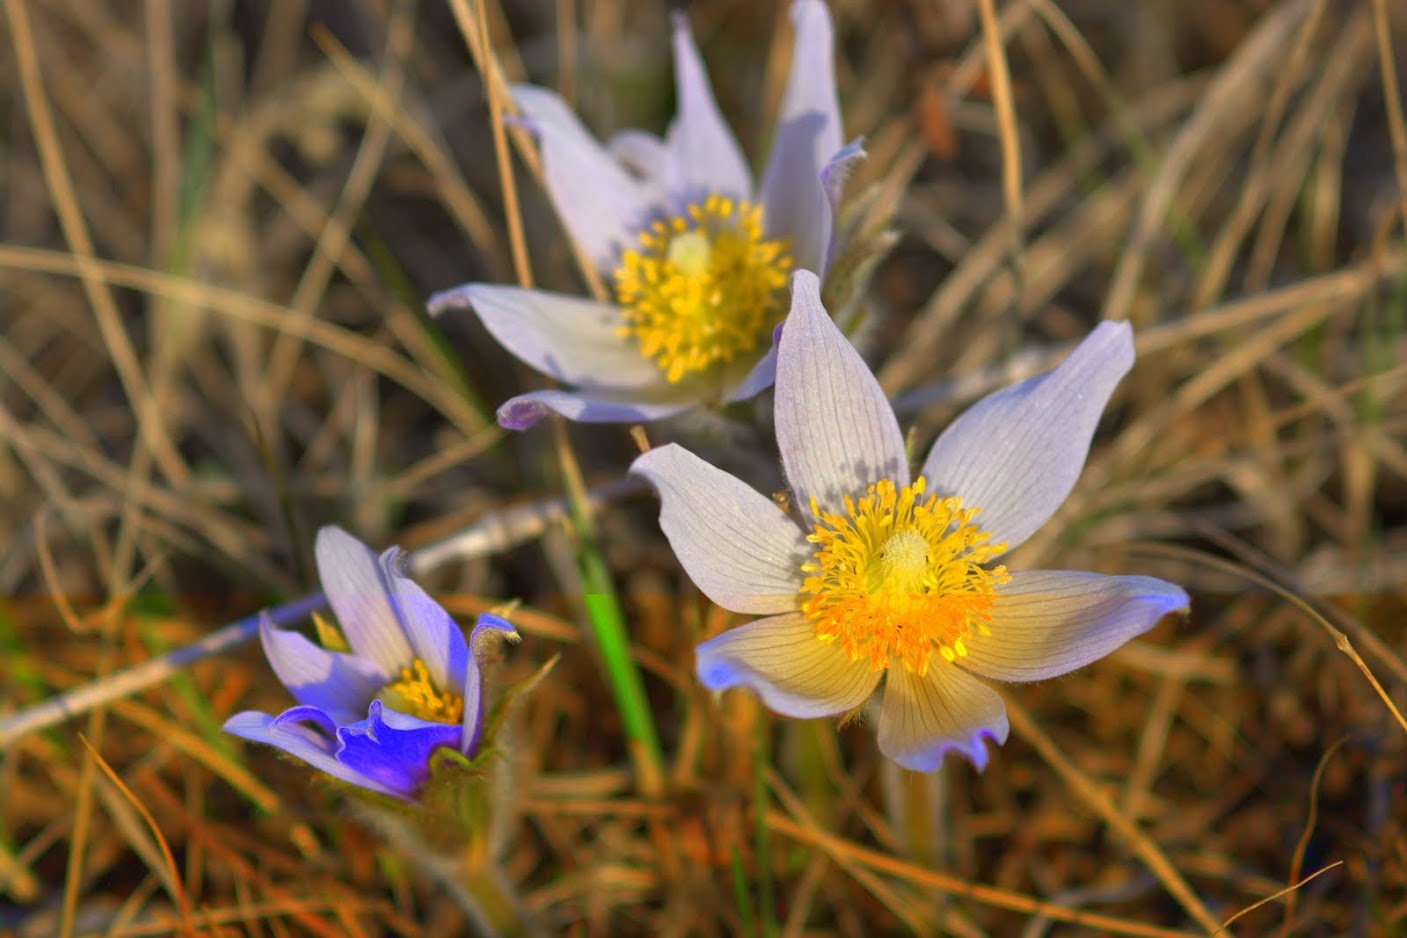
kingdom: Plantae
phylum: Tracheophyta
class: Magnoliopsida
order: Ranunculales
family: Ranunculaceae
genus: Pulsatilla
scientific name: Pulsatilla nuttalliana
